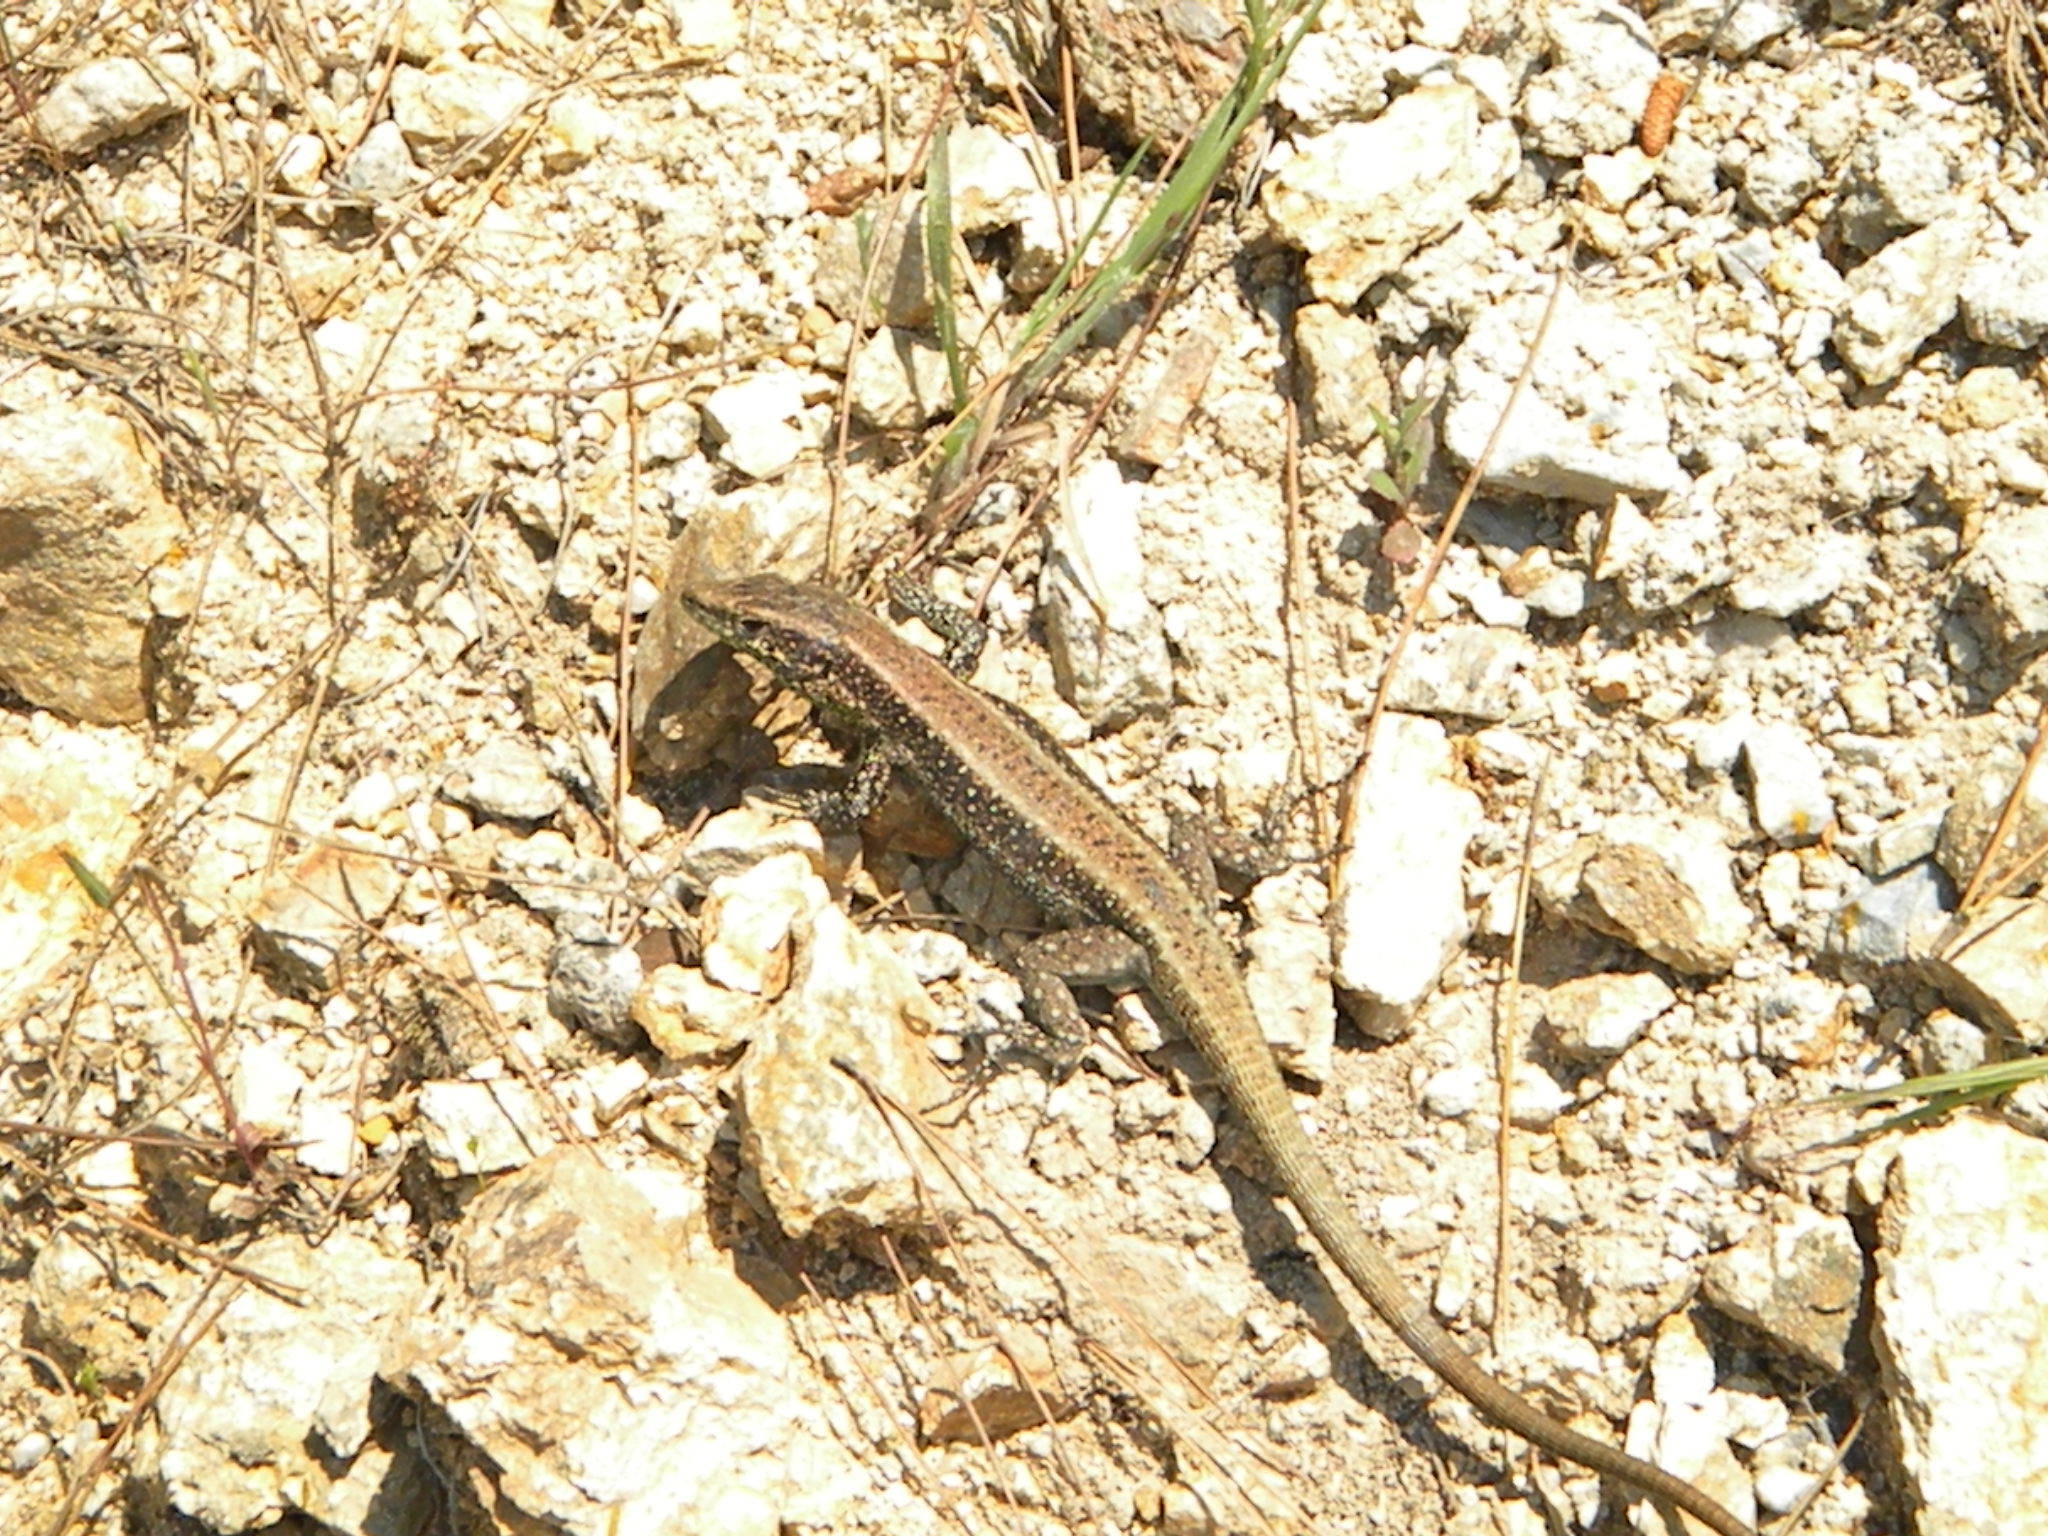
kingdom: Animalia
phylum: Chordata
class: Squamata
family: Lacertidae
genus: Anatololacerta
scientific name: Anatololacerta anatolica
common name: Anatolian rock lizard
